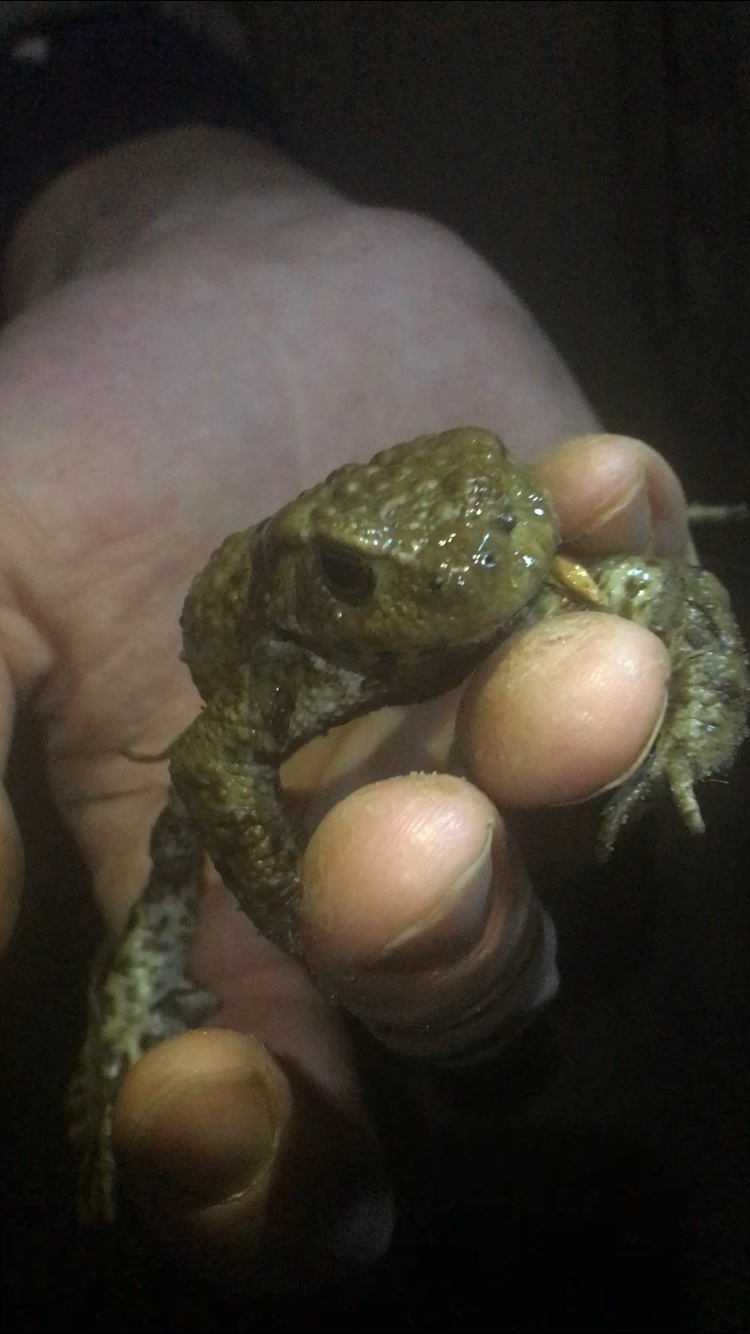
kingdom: Animalia
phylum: Chordata
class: Amphibia
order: Anura
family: Bufonidae
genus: Bufo
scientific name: Bufo bufo
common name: Common toad
